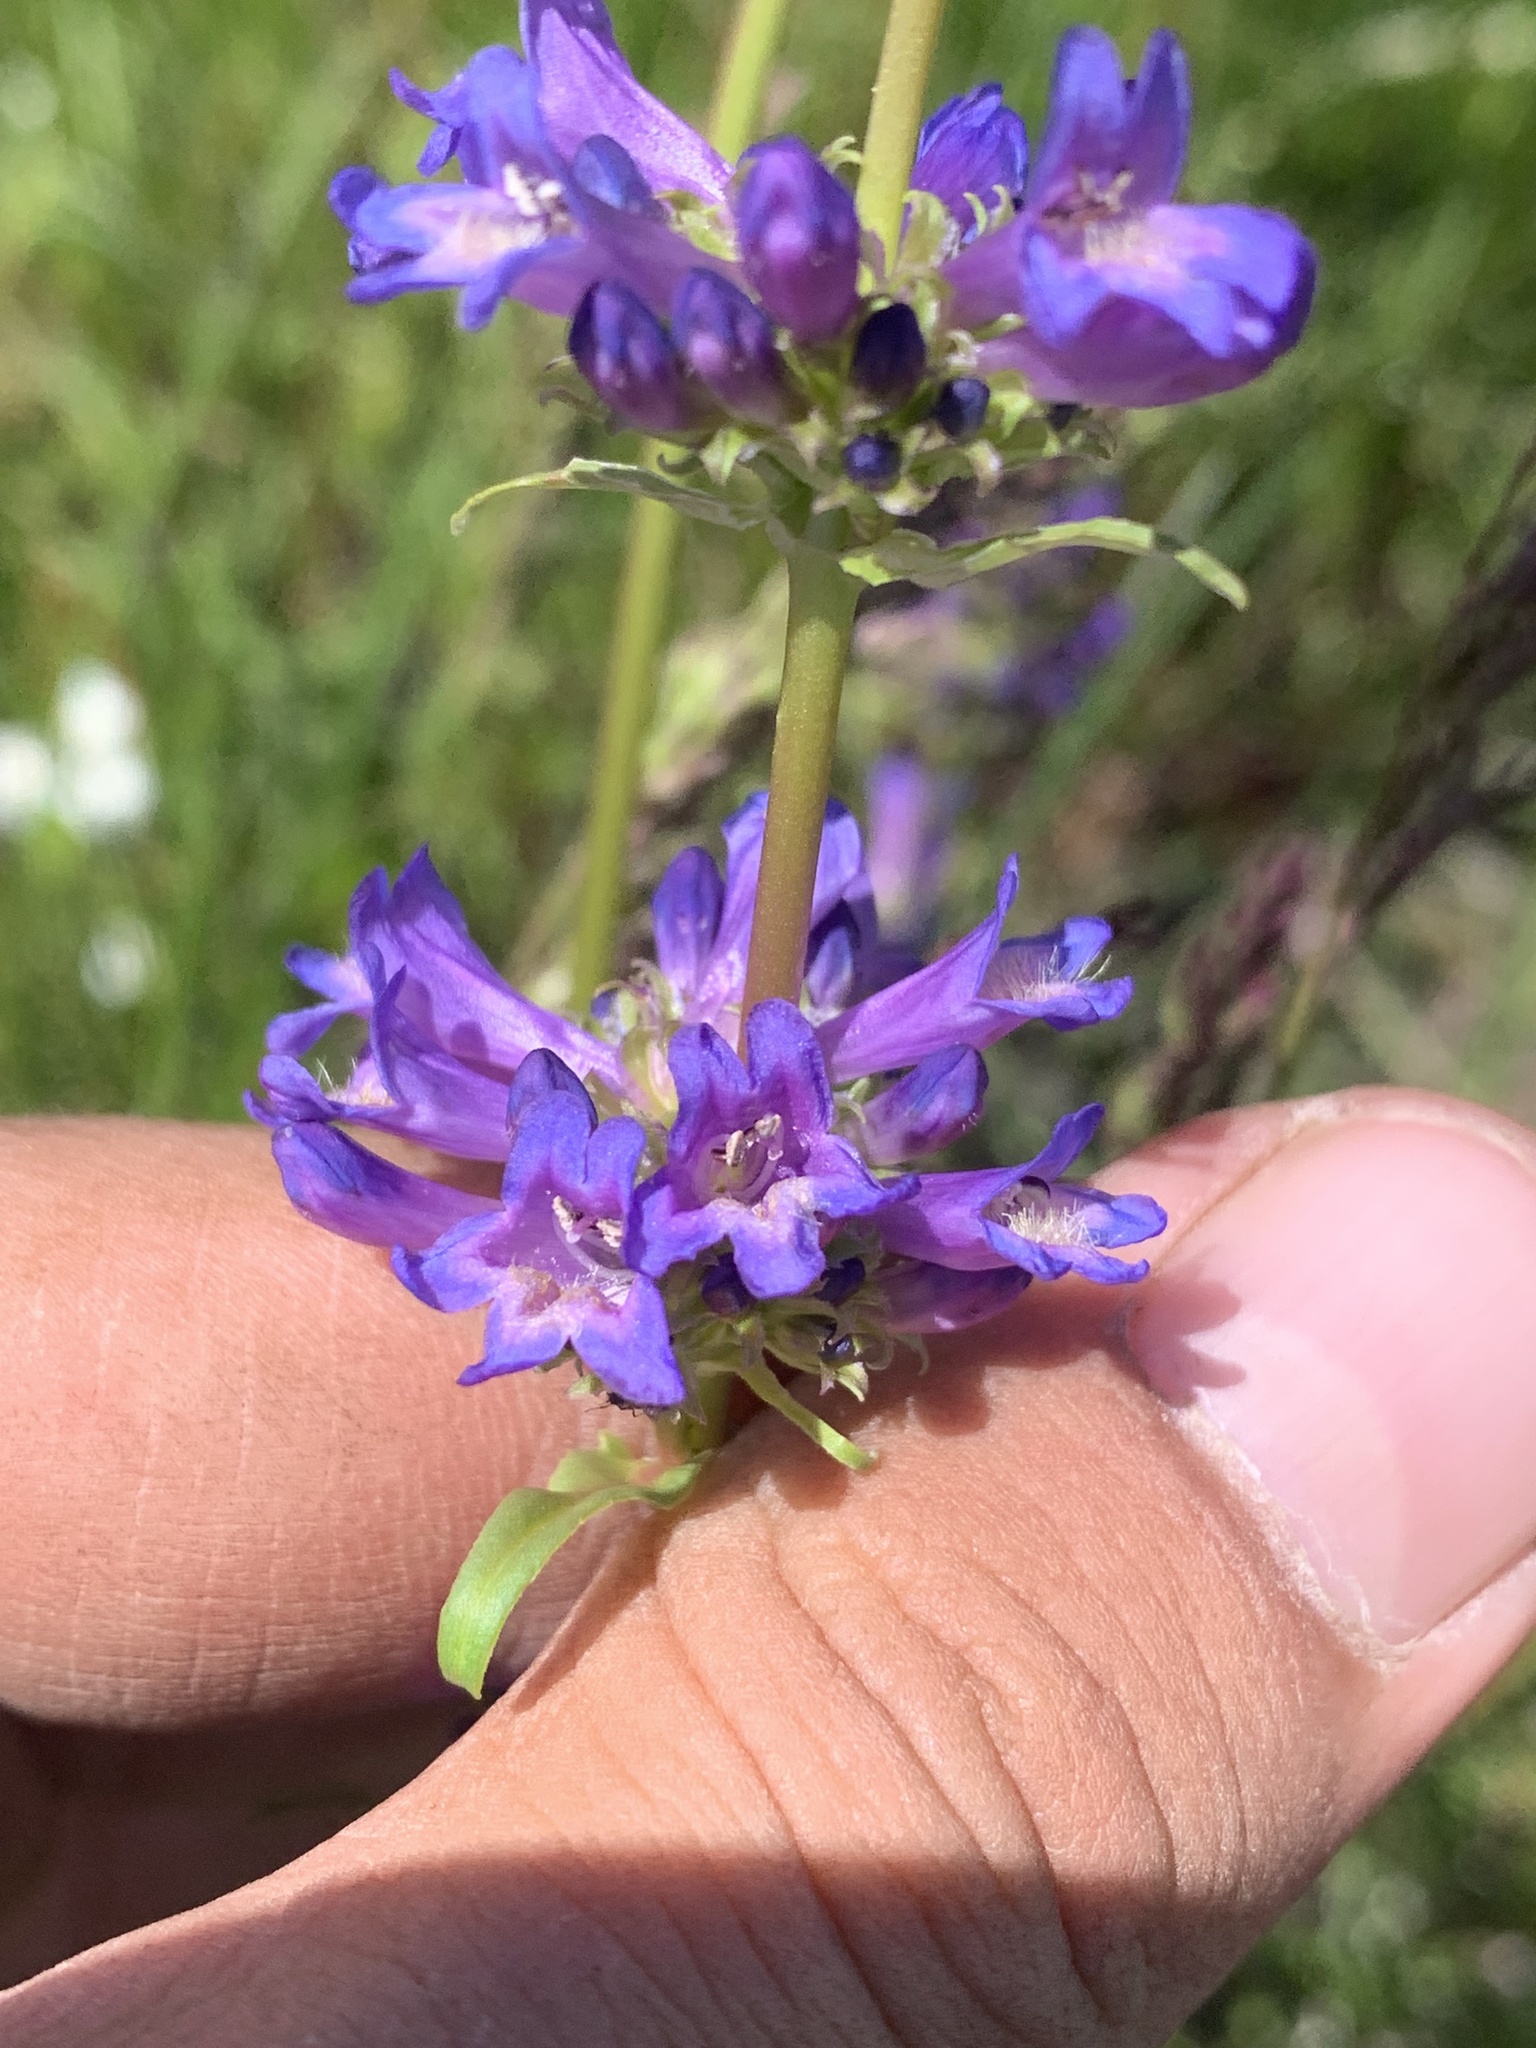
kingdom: Plantae
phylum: Tracheophyta
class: Magnoliopsida
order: Lamiales
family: Plantaginaceae
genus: Penstemon
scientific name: Penstemon rydbergii
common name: Rydberg's beardtongue
